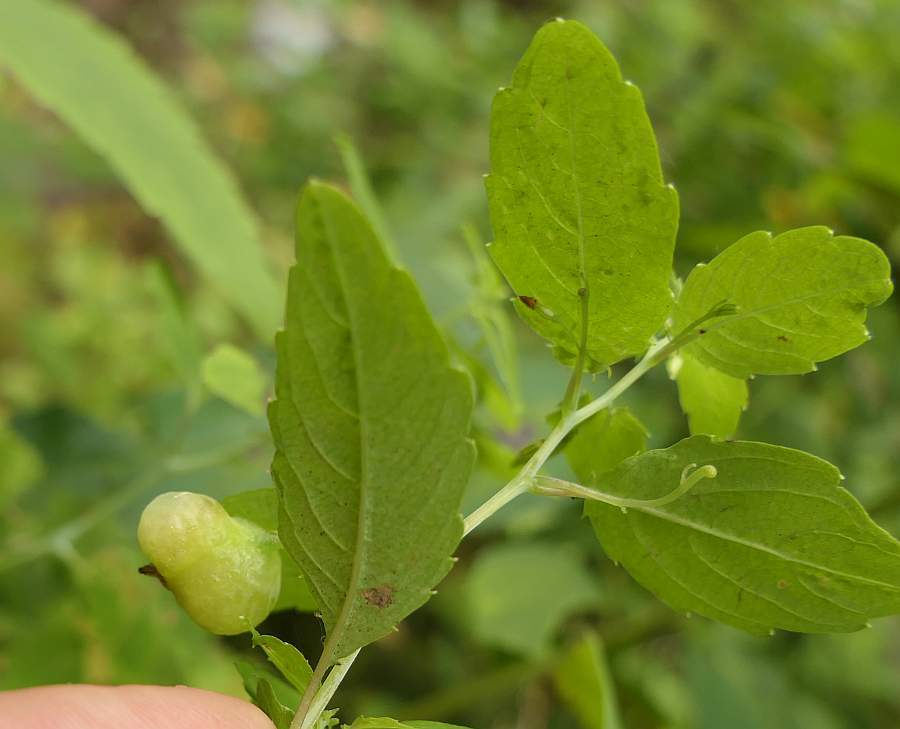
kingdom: Animalia
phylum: Arthropoda
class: Insecta
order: Diptera
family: Cecidomyiidae
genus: Schizomyia
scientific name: Schizomyia impatientis
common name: Jewelweed gall midge
